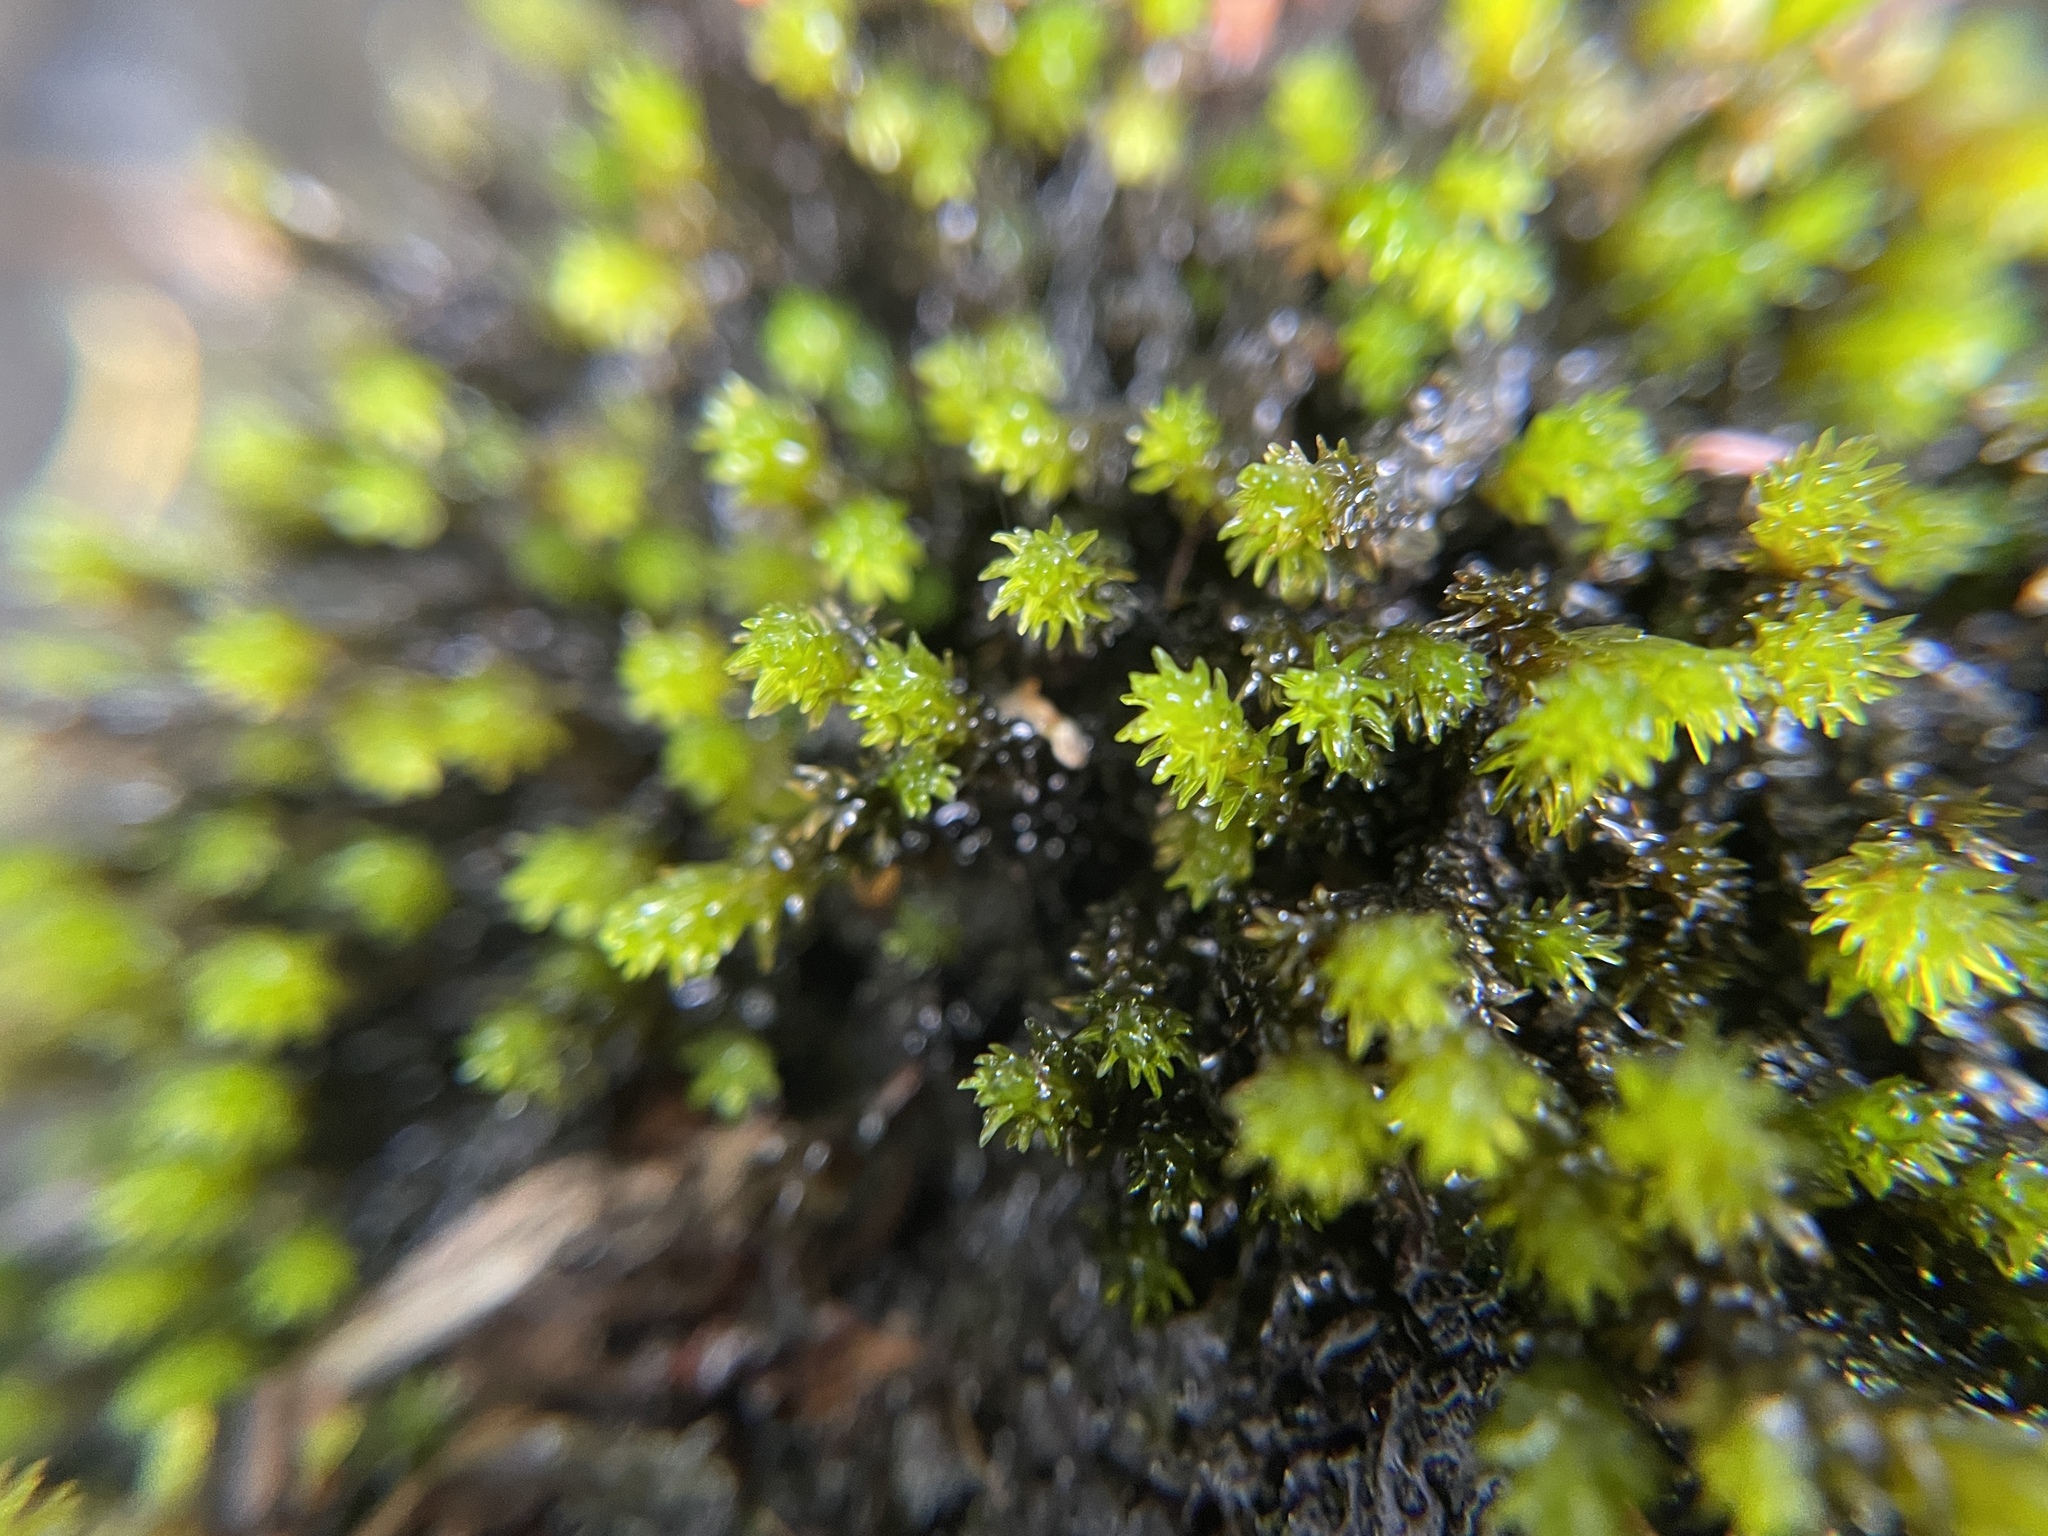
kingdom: Plantae
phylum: Bryophyta
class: Bryopsida
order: Grimmiales
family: Grimmiaceae
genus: Codriophorus
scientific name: Codriophorus acicularis
